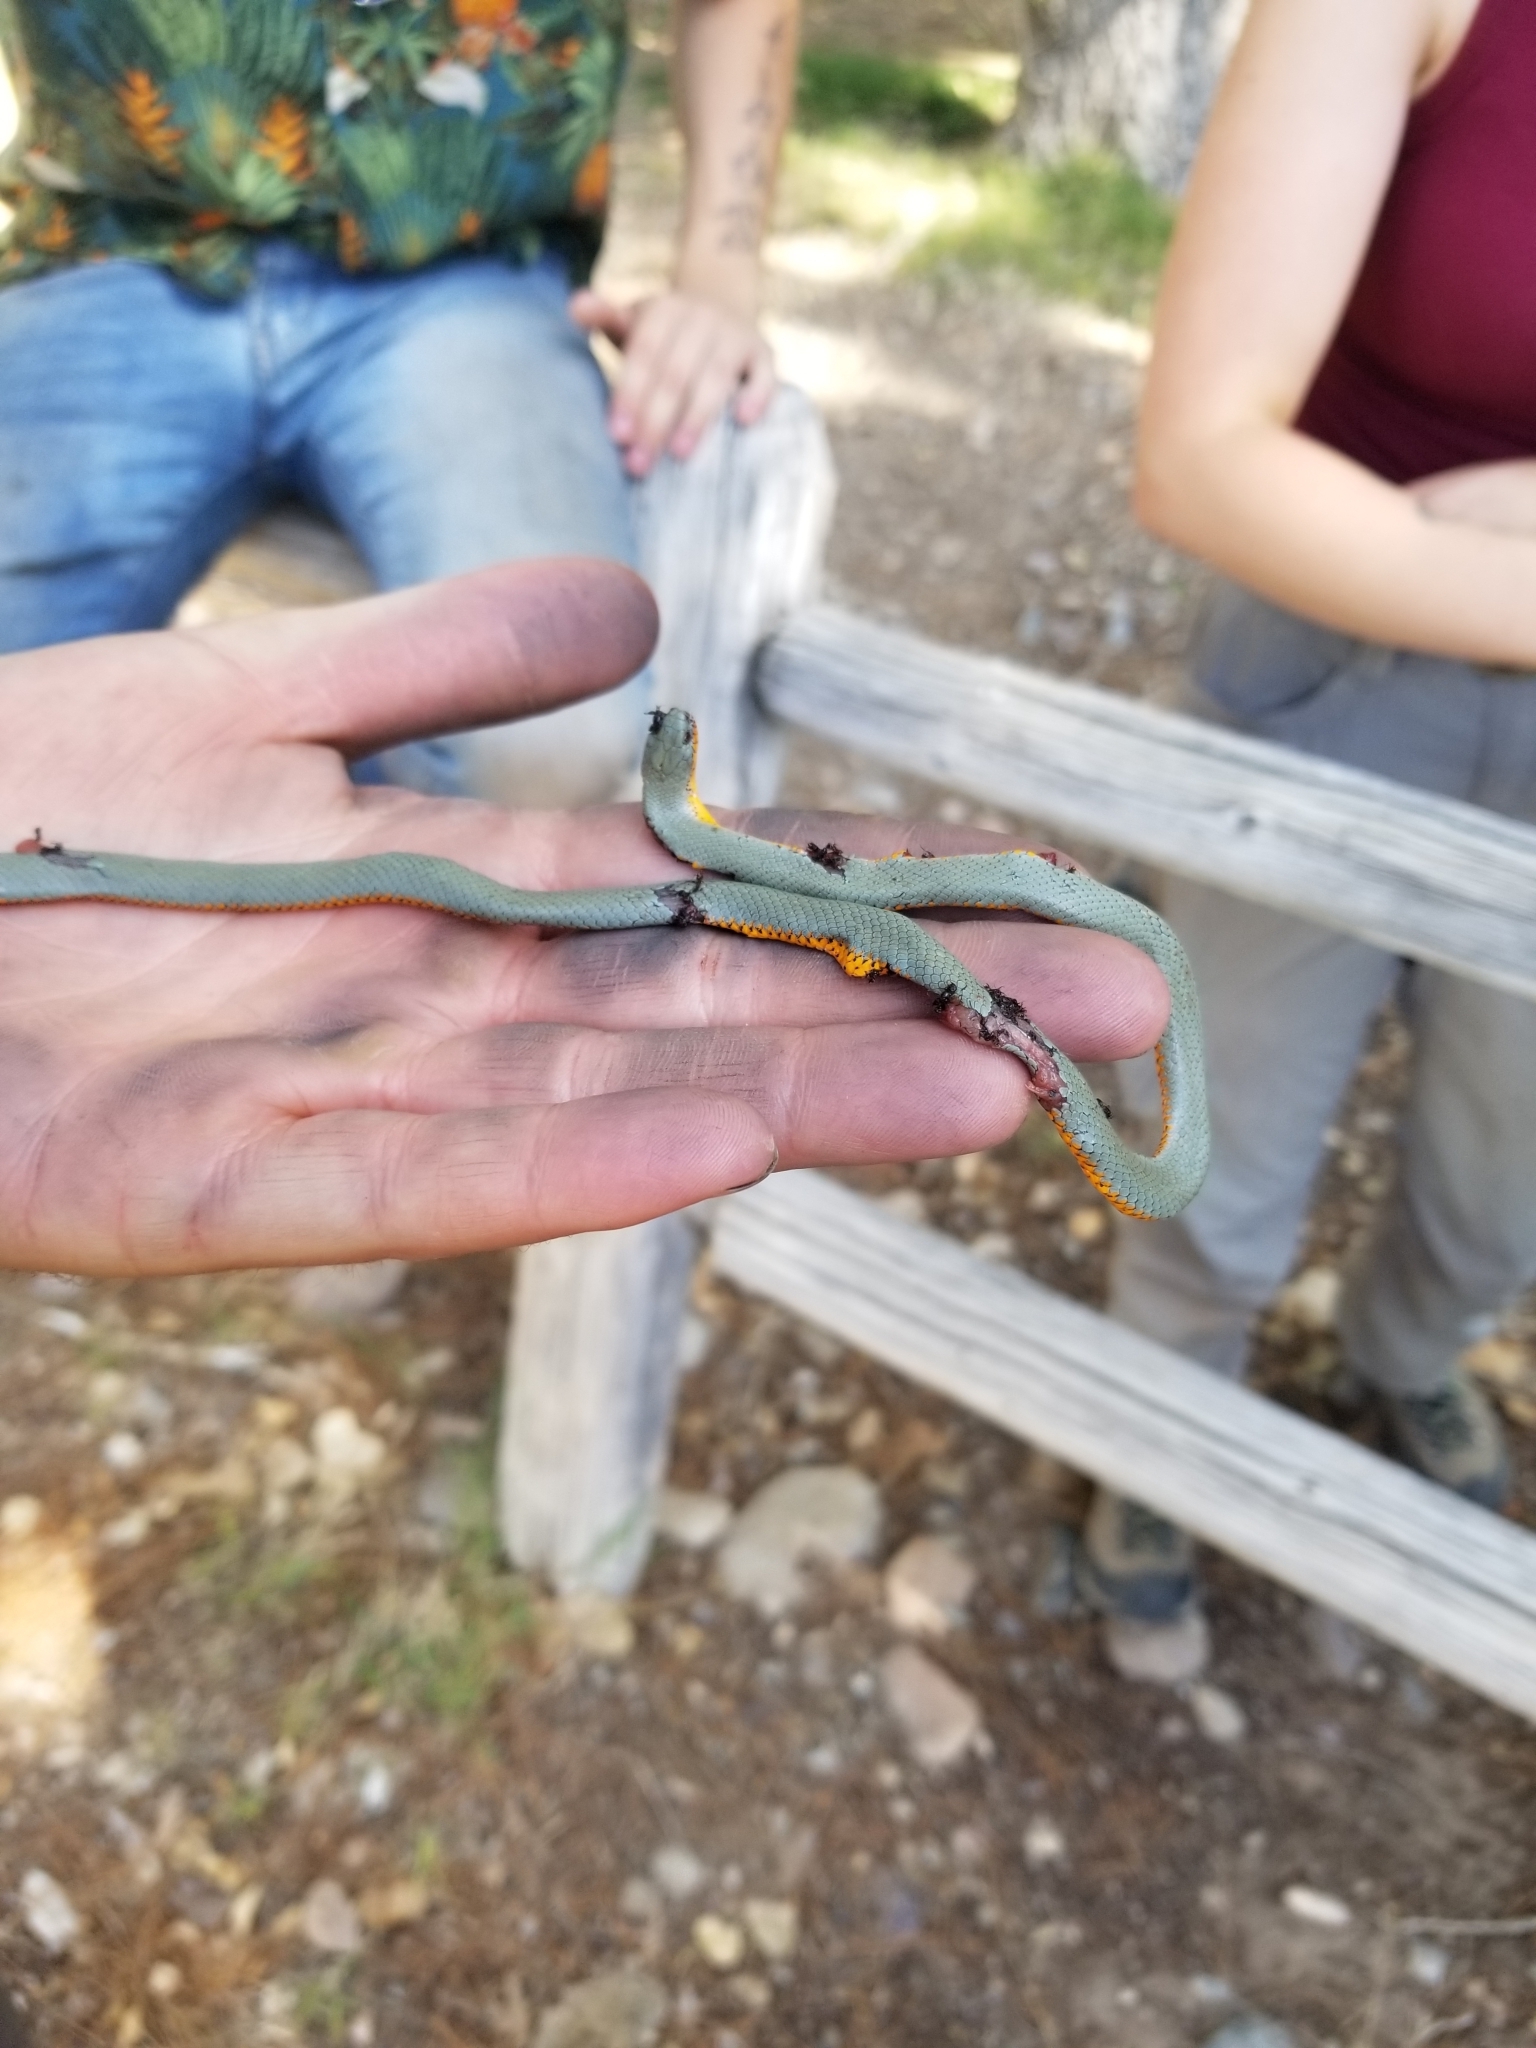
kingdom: Animalia
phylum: Chordata
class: Squamata
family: Colubridae
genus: Diadophis
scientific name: Diadophis punctatus
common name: Ringneck snake
